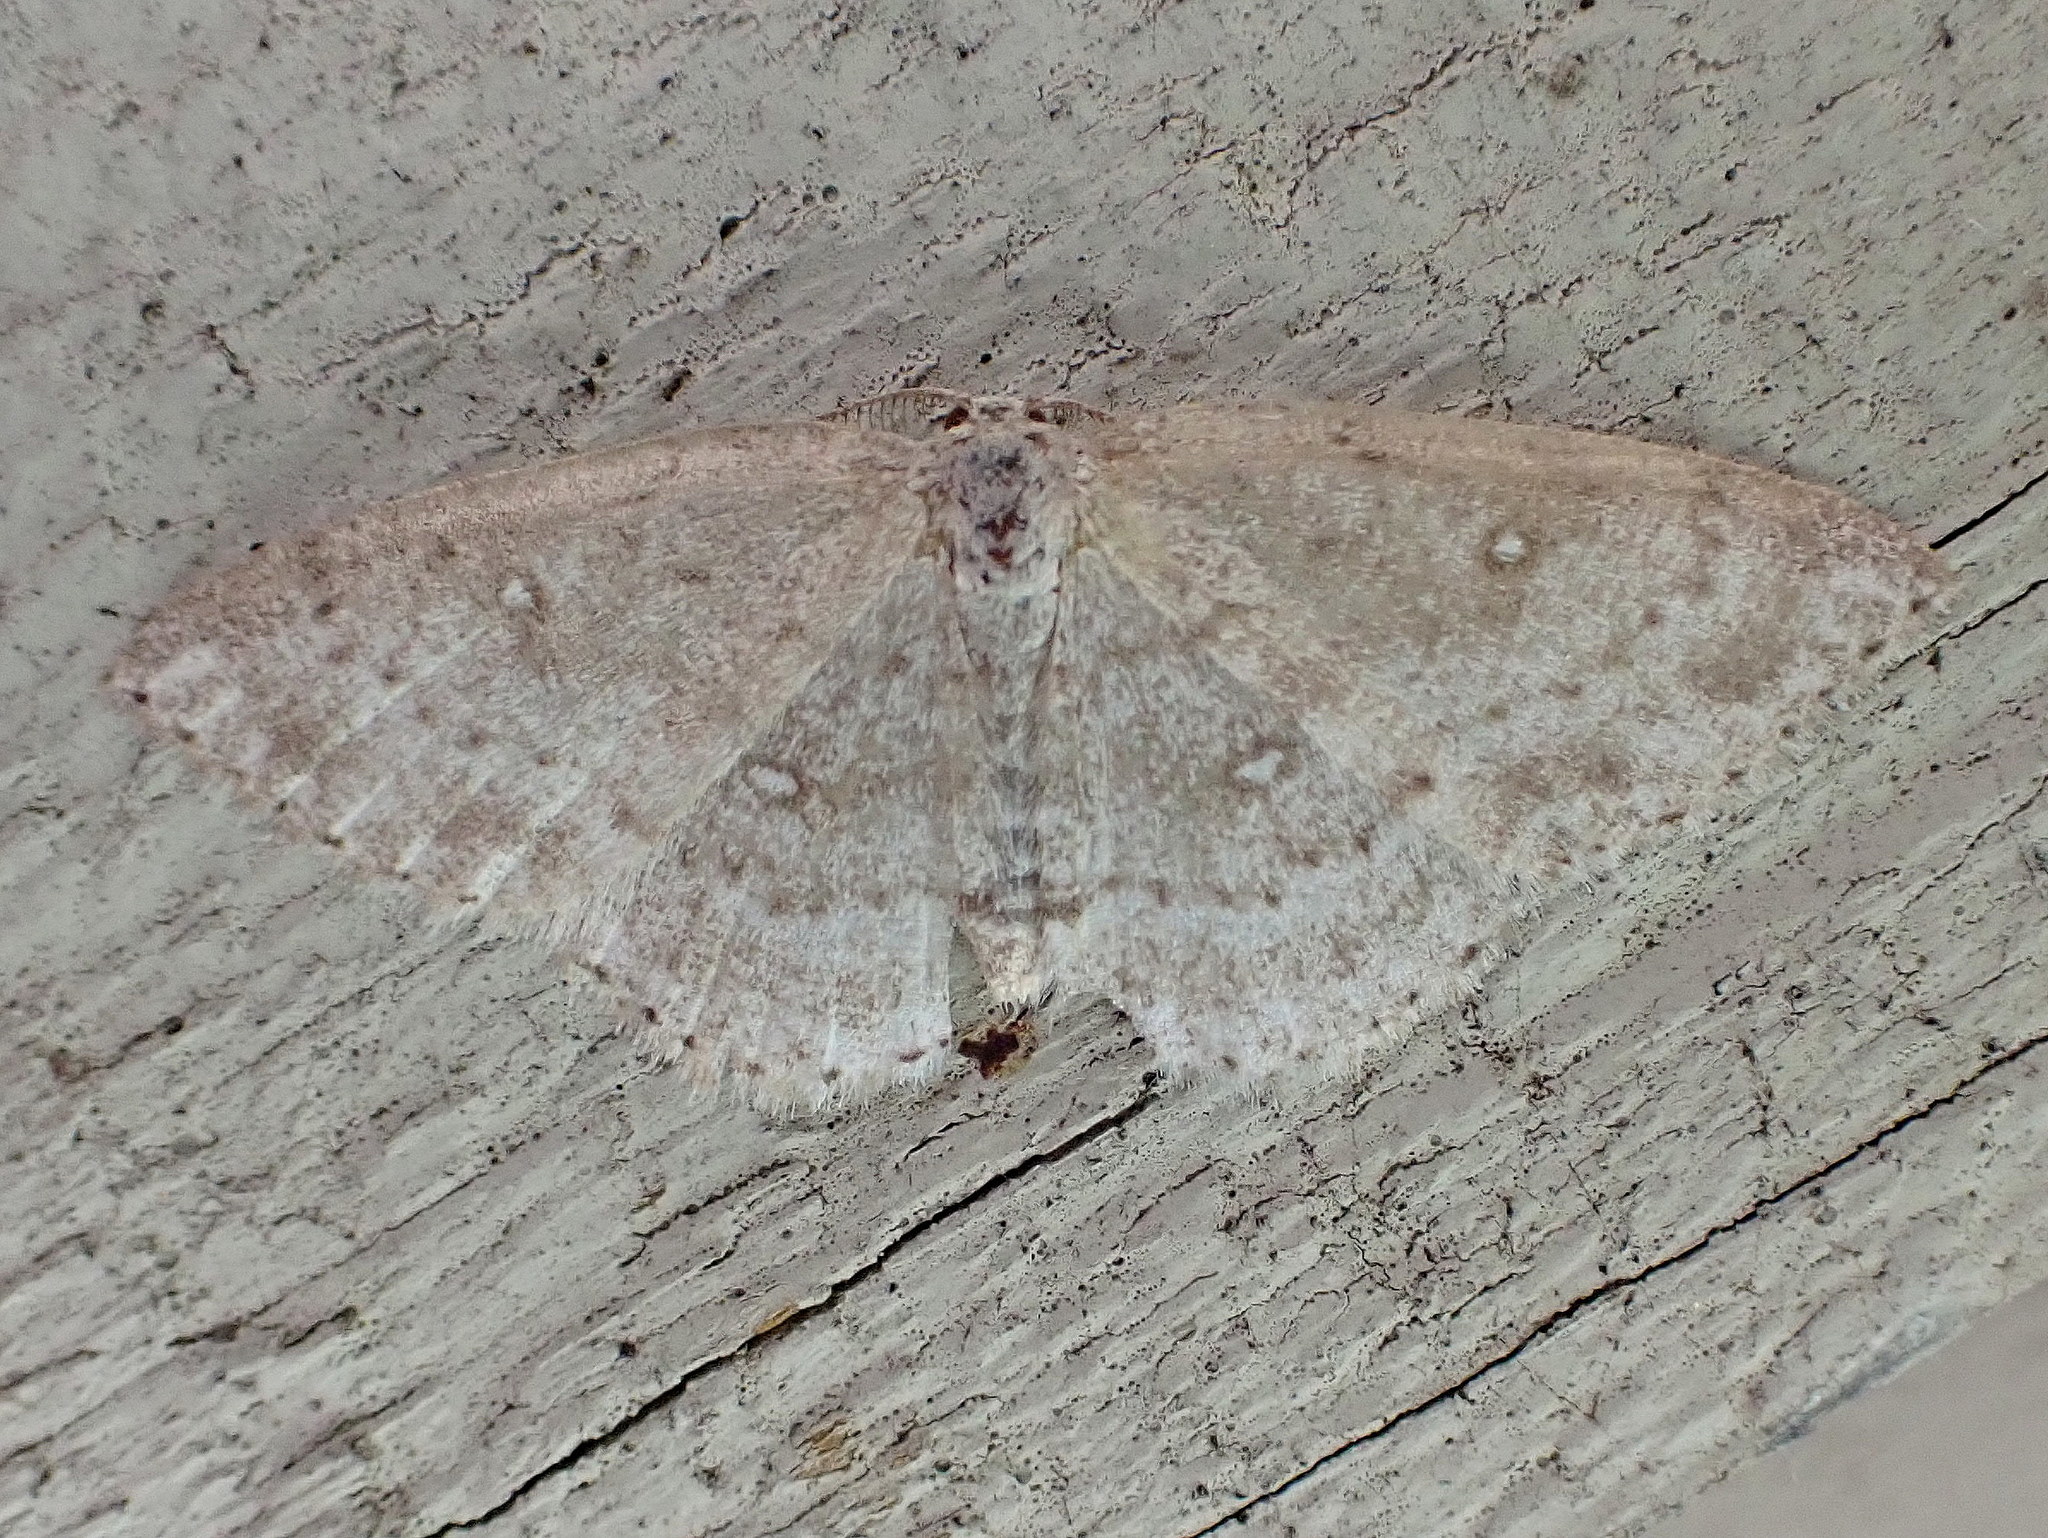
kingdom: Animalia
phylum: Arthropoda
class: Insecta
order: Lepidoptera
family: Geometridae
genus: Cyclophora
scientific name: Cyclophora pendulinaria
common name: Sweet fern geometer
